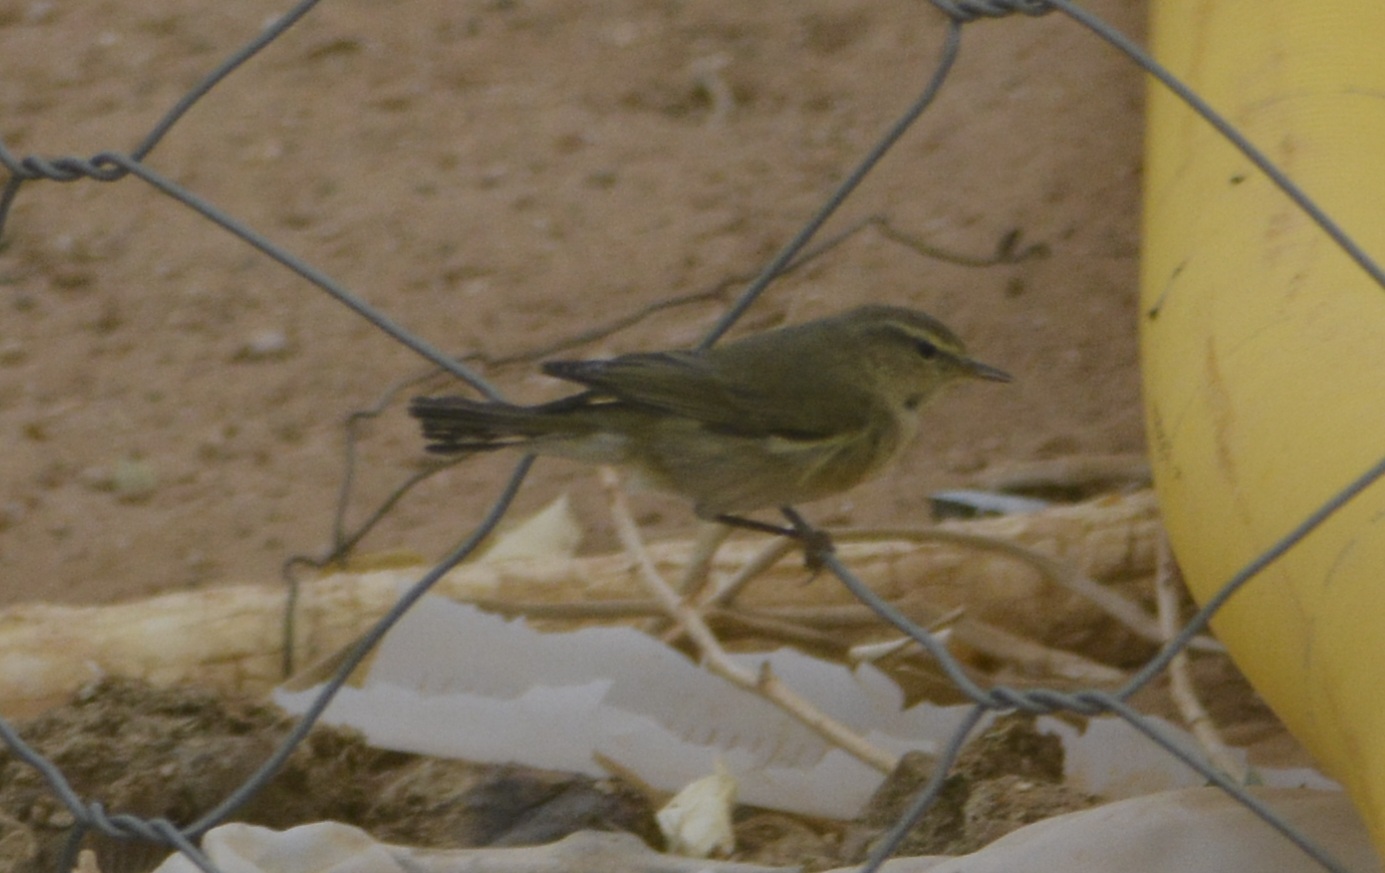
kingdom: Animalia
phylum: Chordata
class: Aves
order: Passeriformes
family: Phylloscopidae
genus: Phylloscopus
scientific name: Phylloscopus collybita
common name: Common chiffchaff
